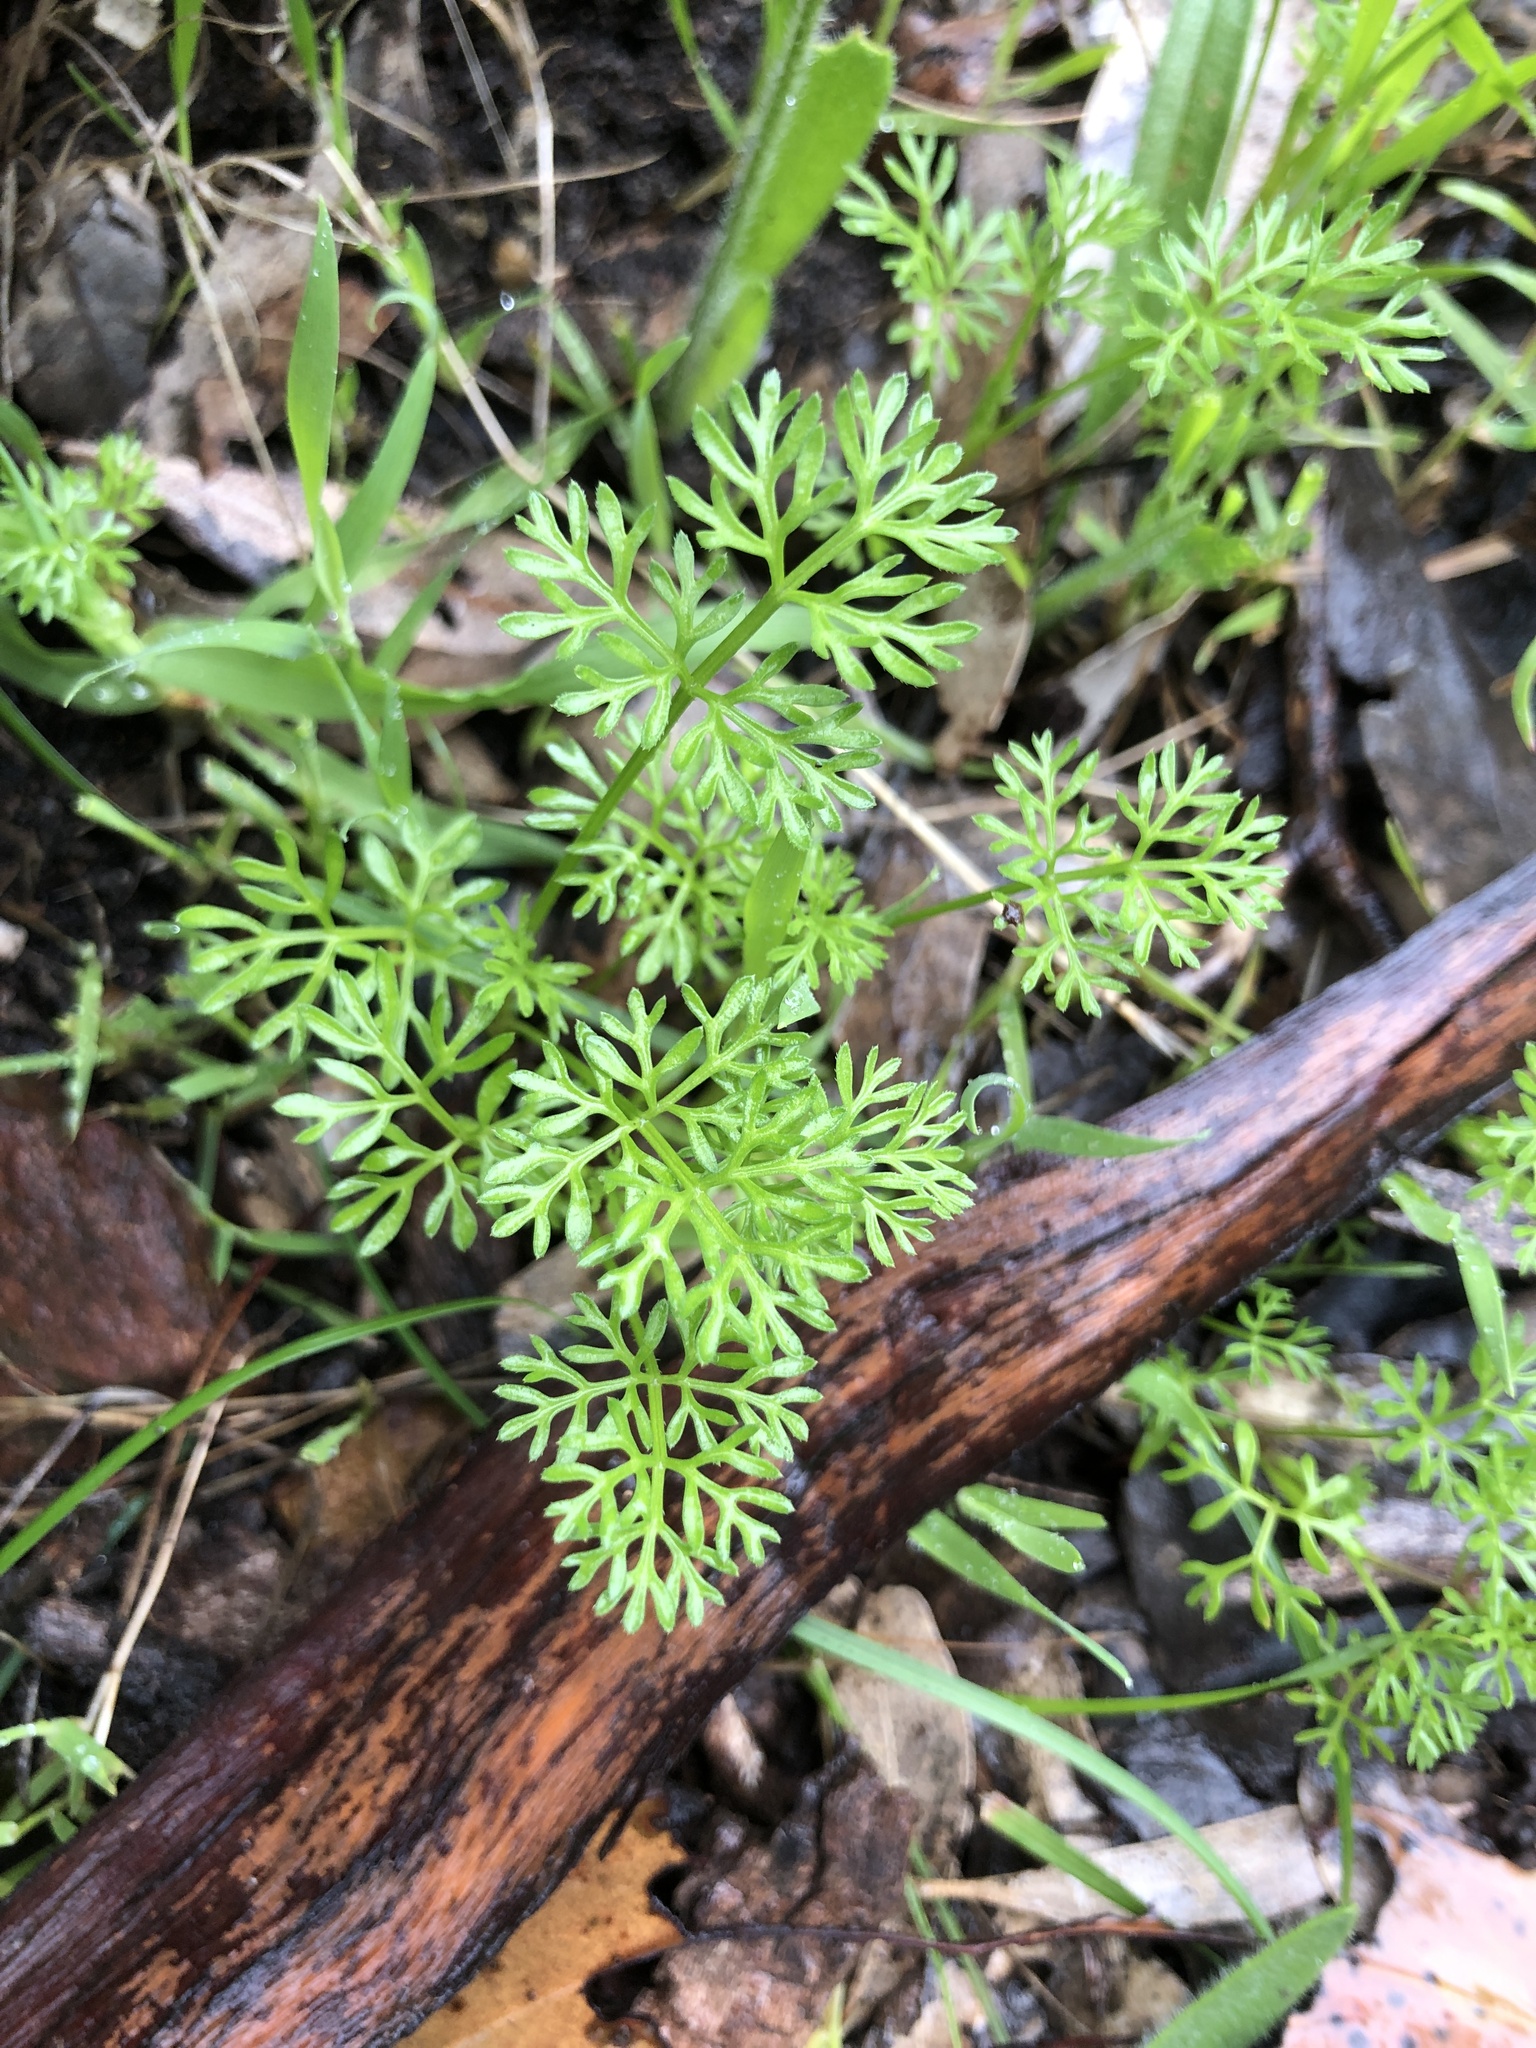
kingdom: Plantae
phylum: Tracheophyta
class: Magnoliopsida
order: Apiales
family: Apiaceae
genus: Daucus
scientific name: Daucus glochidiatus
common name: Australian carrot
